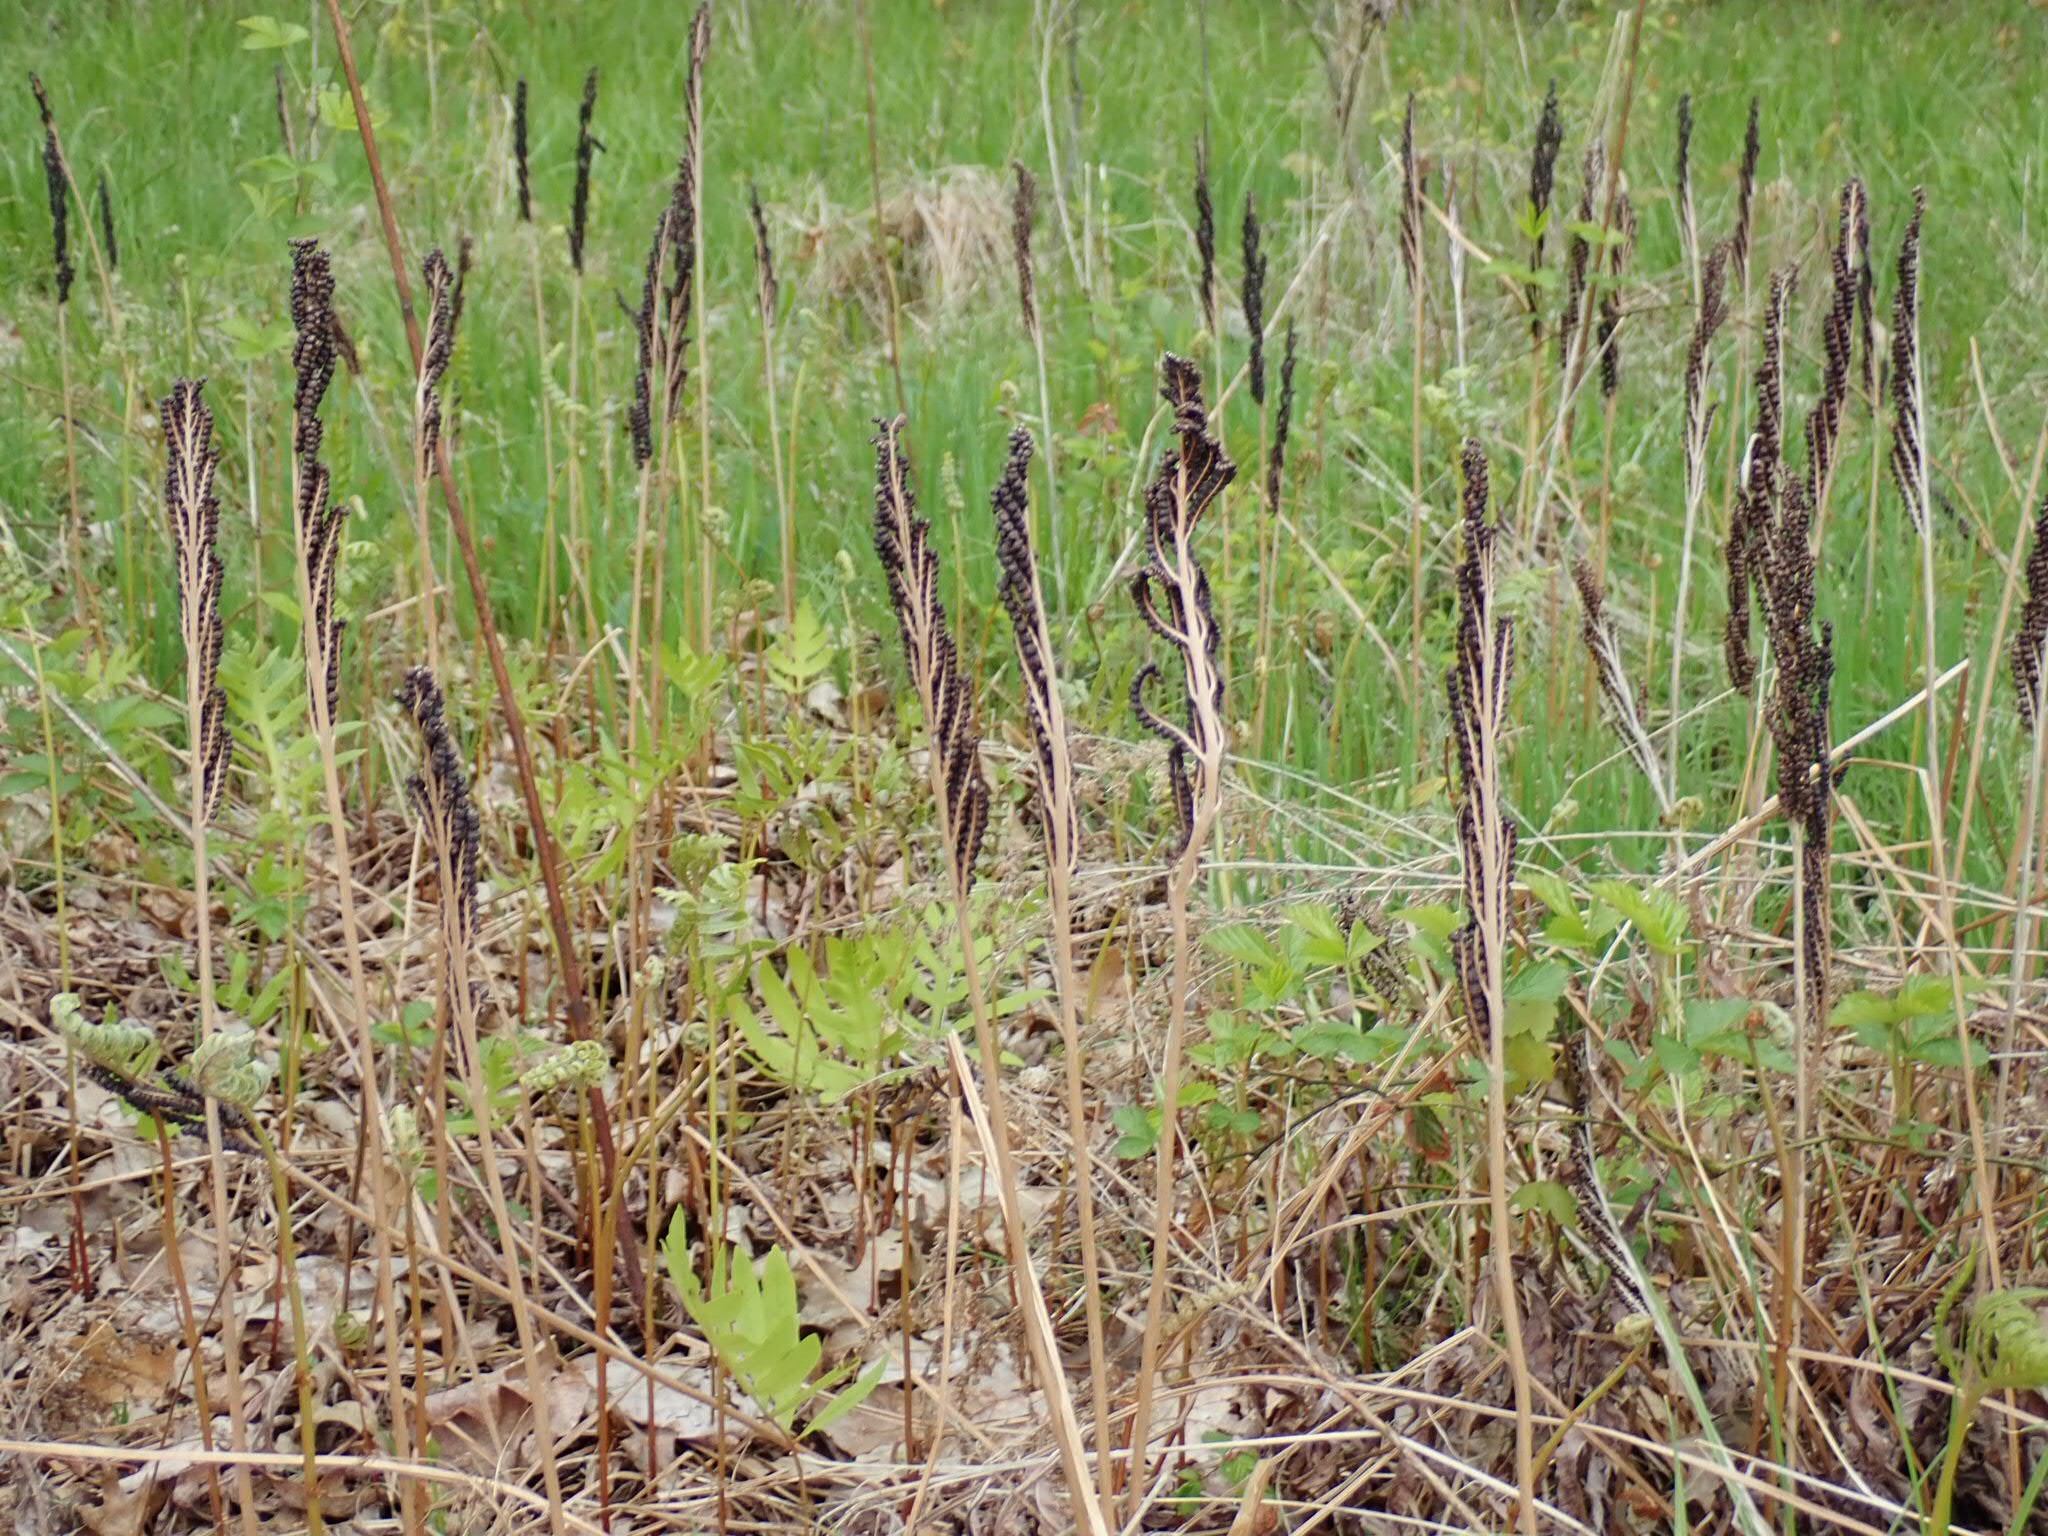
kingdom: Plantae
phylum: Tracheophyta
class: Polypodiopsida
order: Polypodiales
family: Onocleaceae
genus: Onoclea
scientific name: Onoclea sensibilis
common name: Sensitive fern
